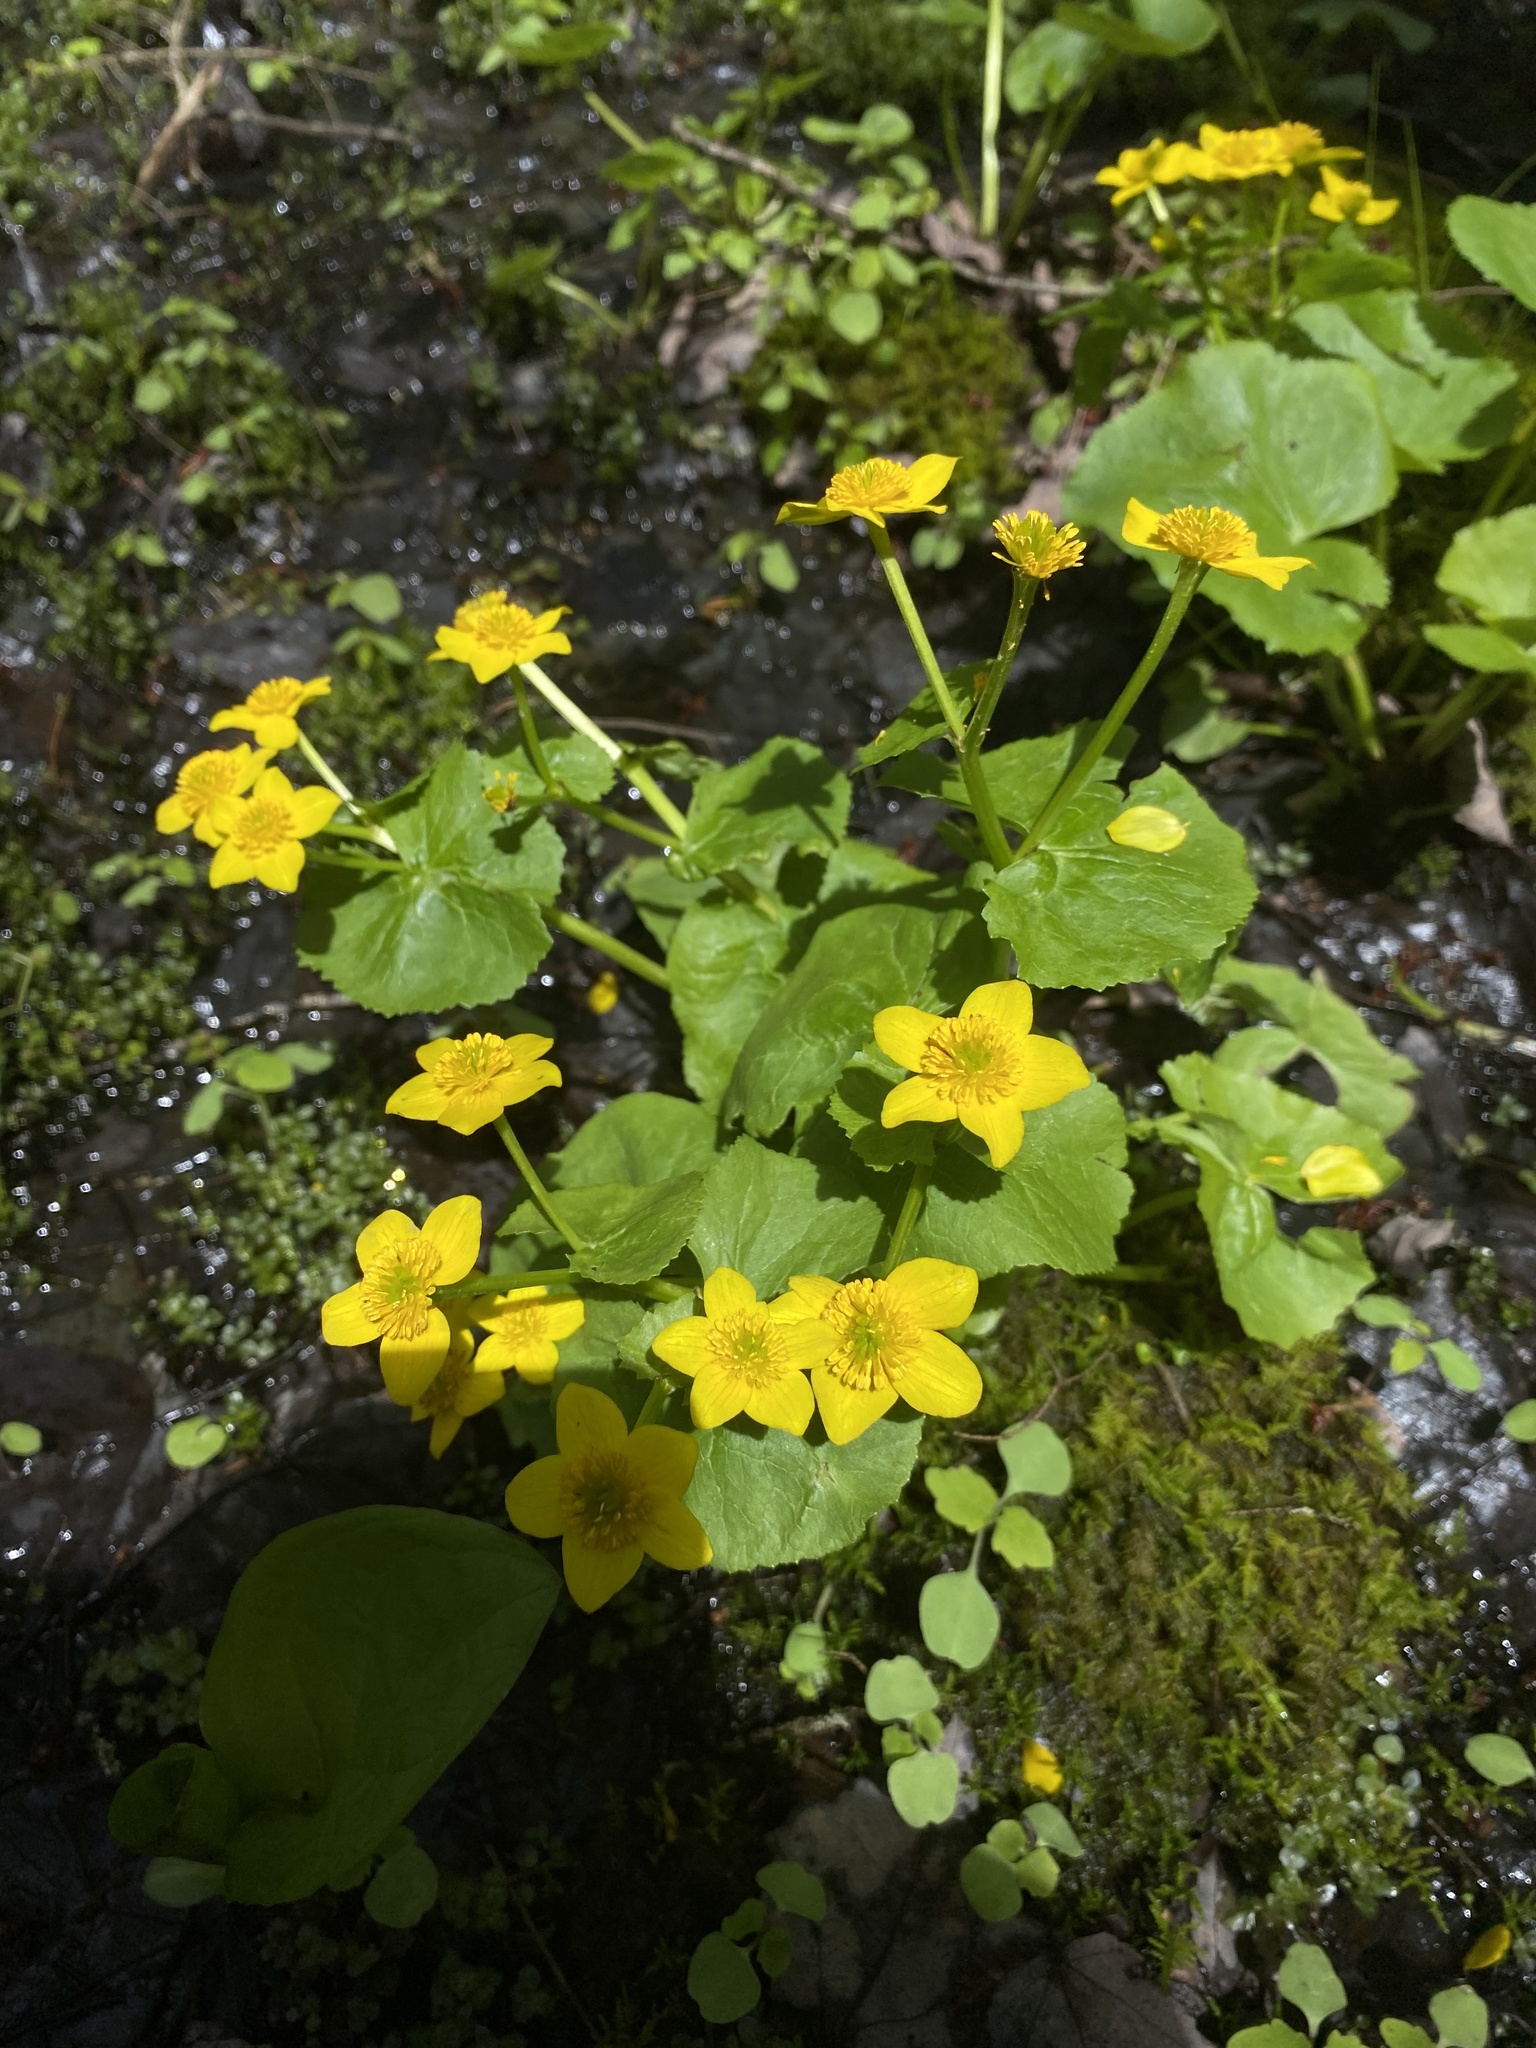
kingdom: Plantae
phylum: Tracheophyta
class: Magnoliopsida
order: Ranunculales
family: Ranunculaceae
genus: Caltha
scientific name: Caltha palustris
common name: Marsh marigold
